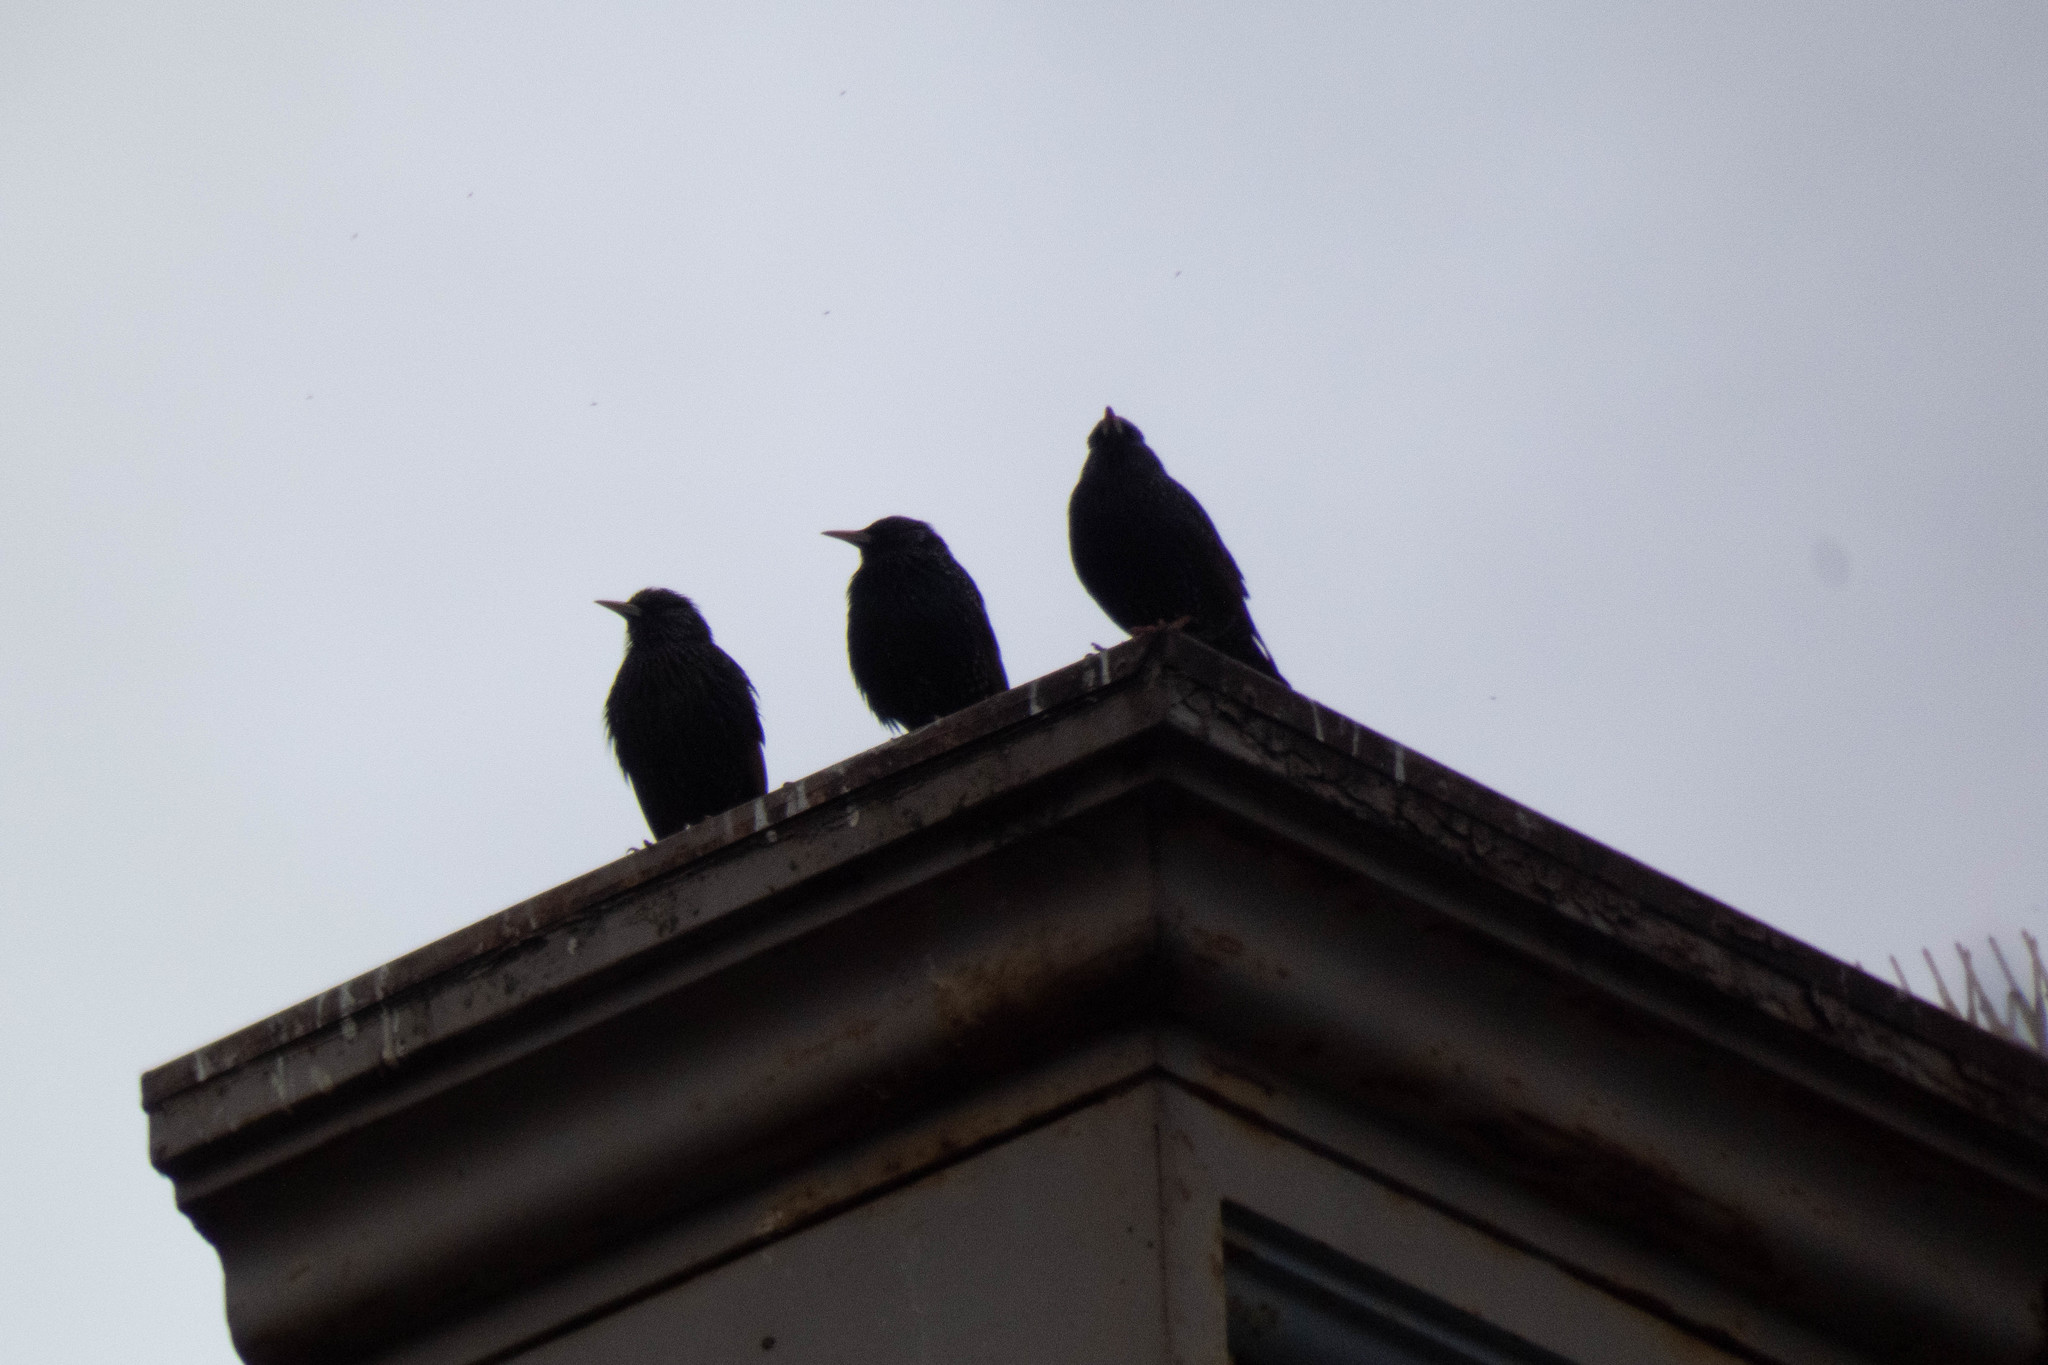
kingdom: Animalia
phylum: Chordata
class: Aves
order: Passeriformes
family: Sturnidae
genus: Sturnus
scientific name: Sturnus vulgaris
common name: Common starling
